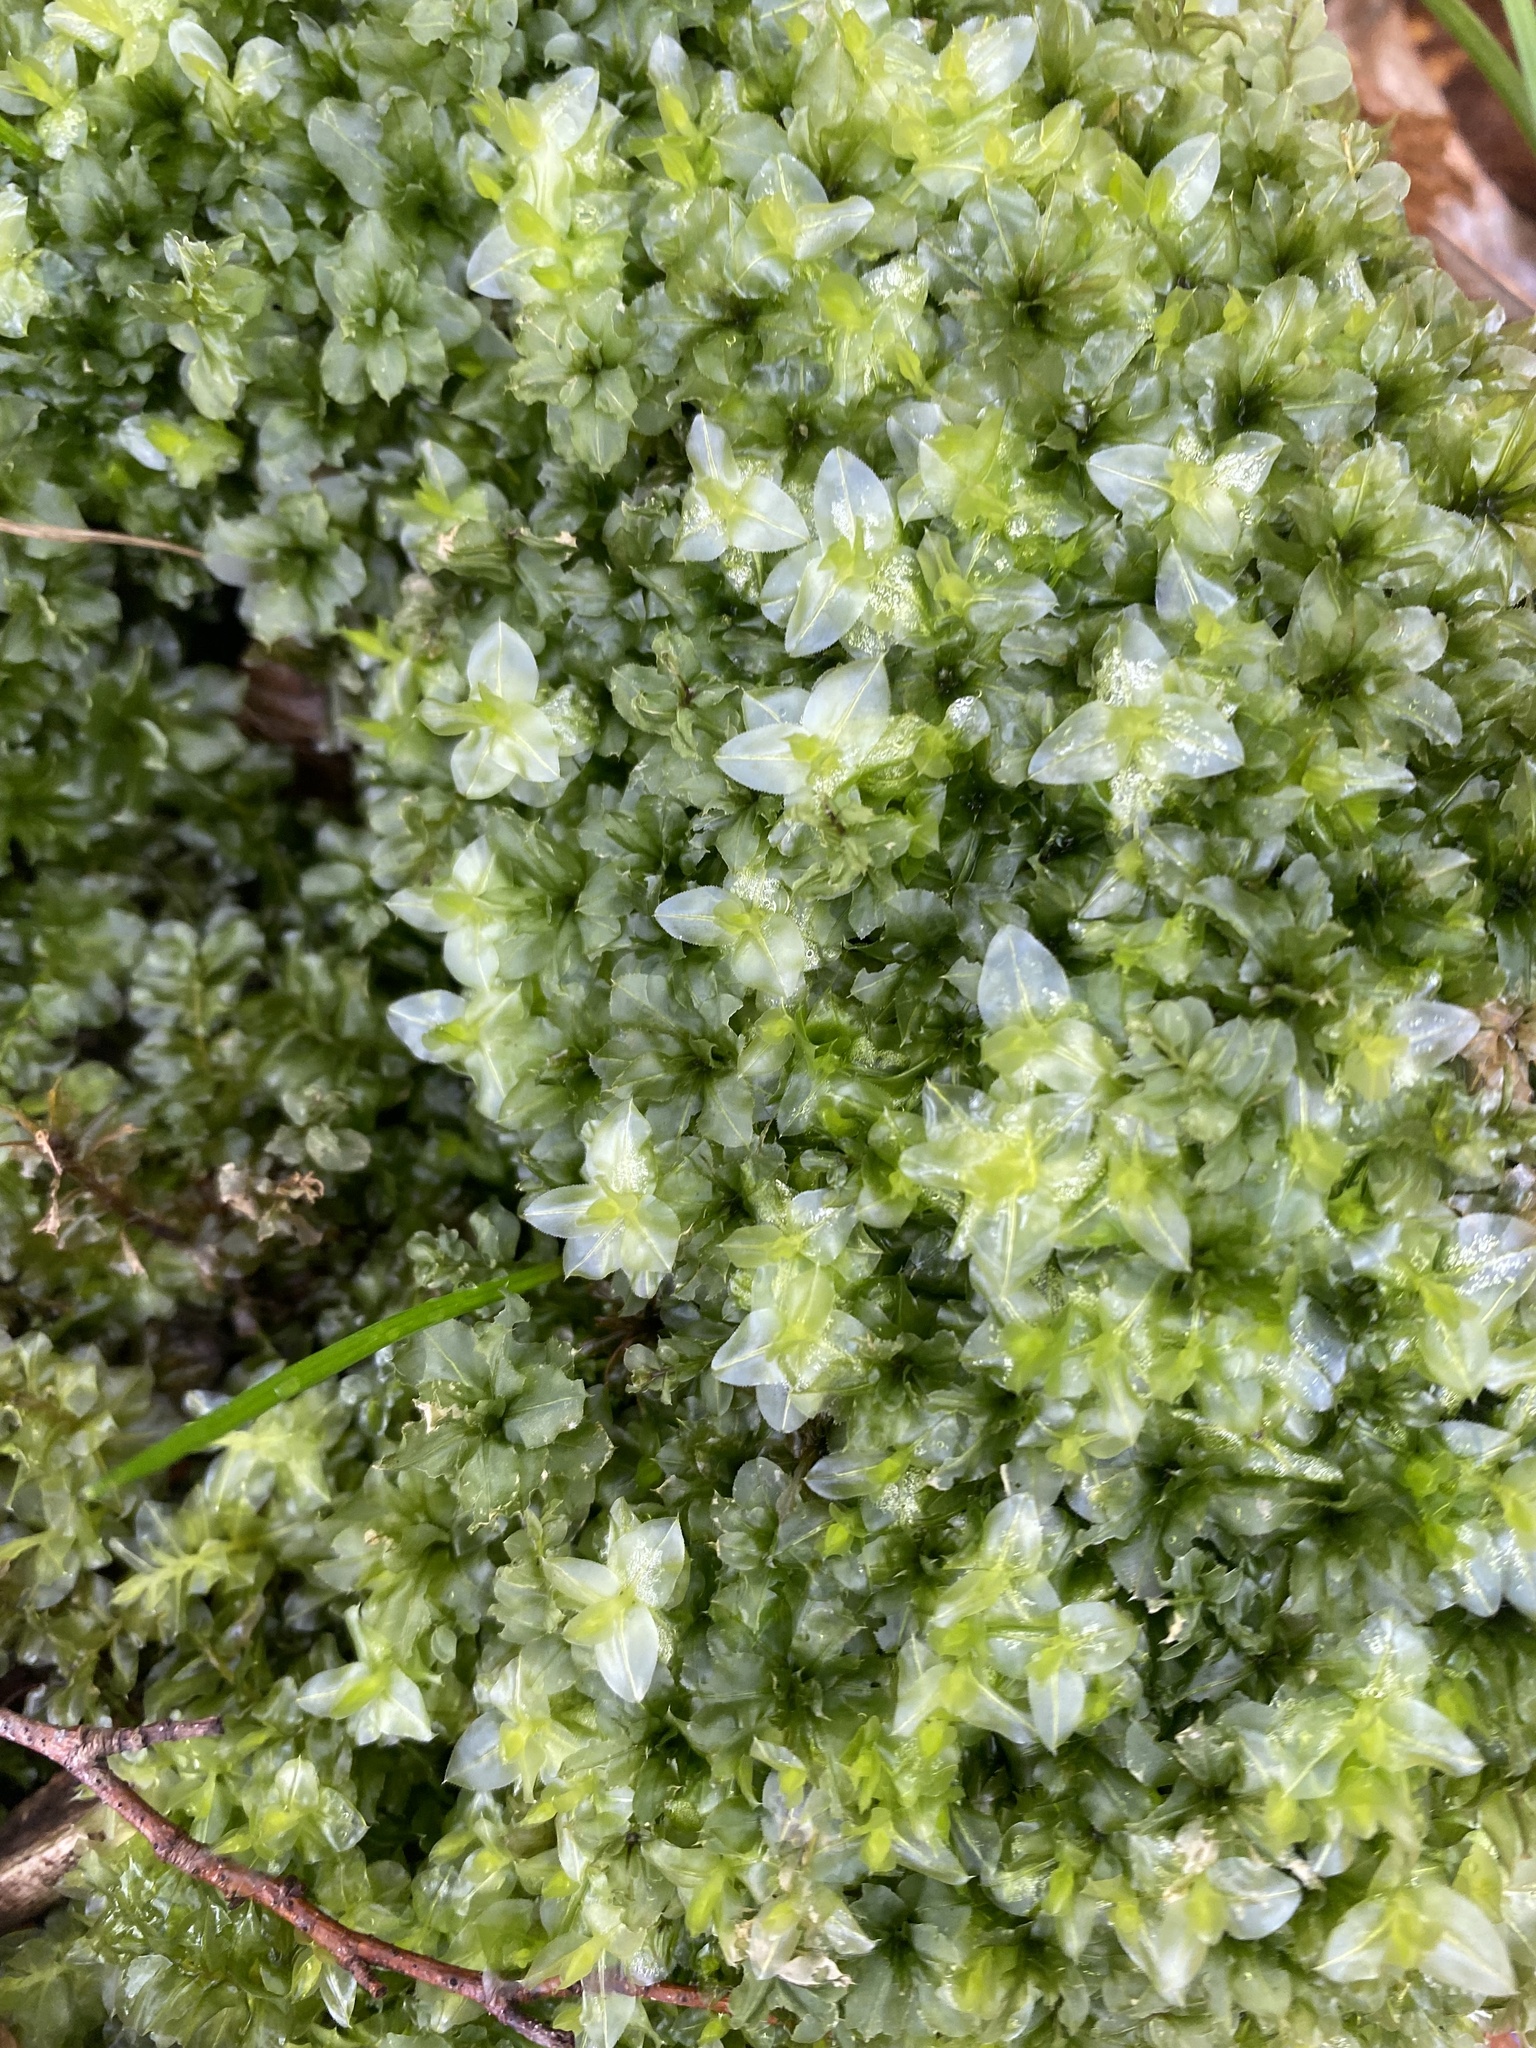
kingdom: Plantae
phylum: Bryophyta
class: Bryopsida
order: Bryales
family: Mniaceae
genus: Plagiomnium
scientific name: Plagiomnium affine
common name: Many-fruited thyme-moss
